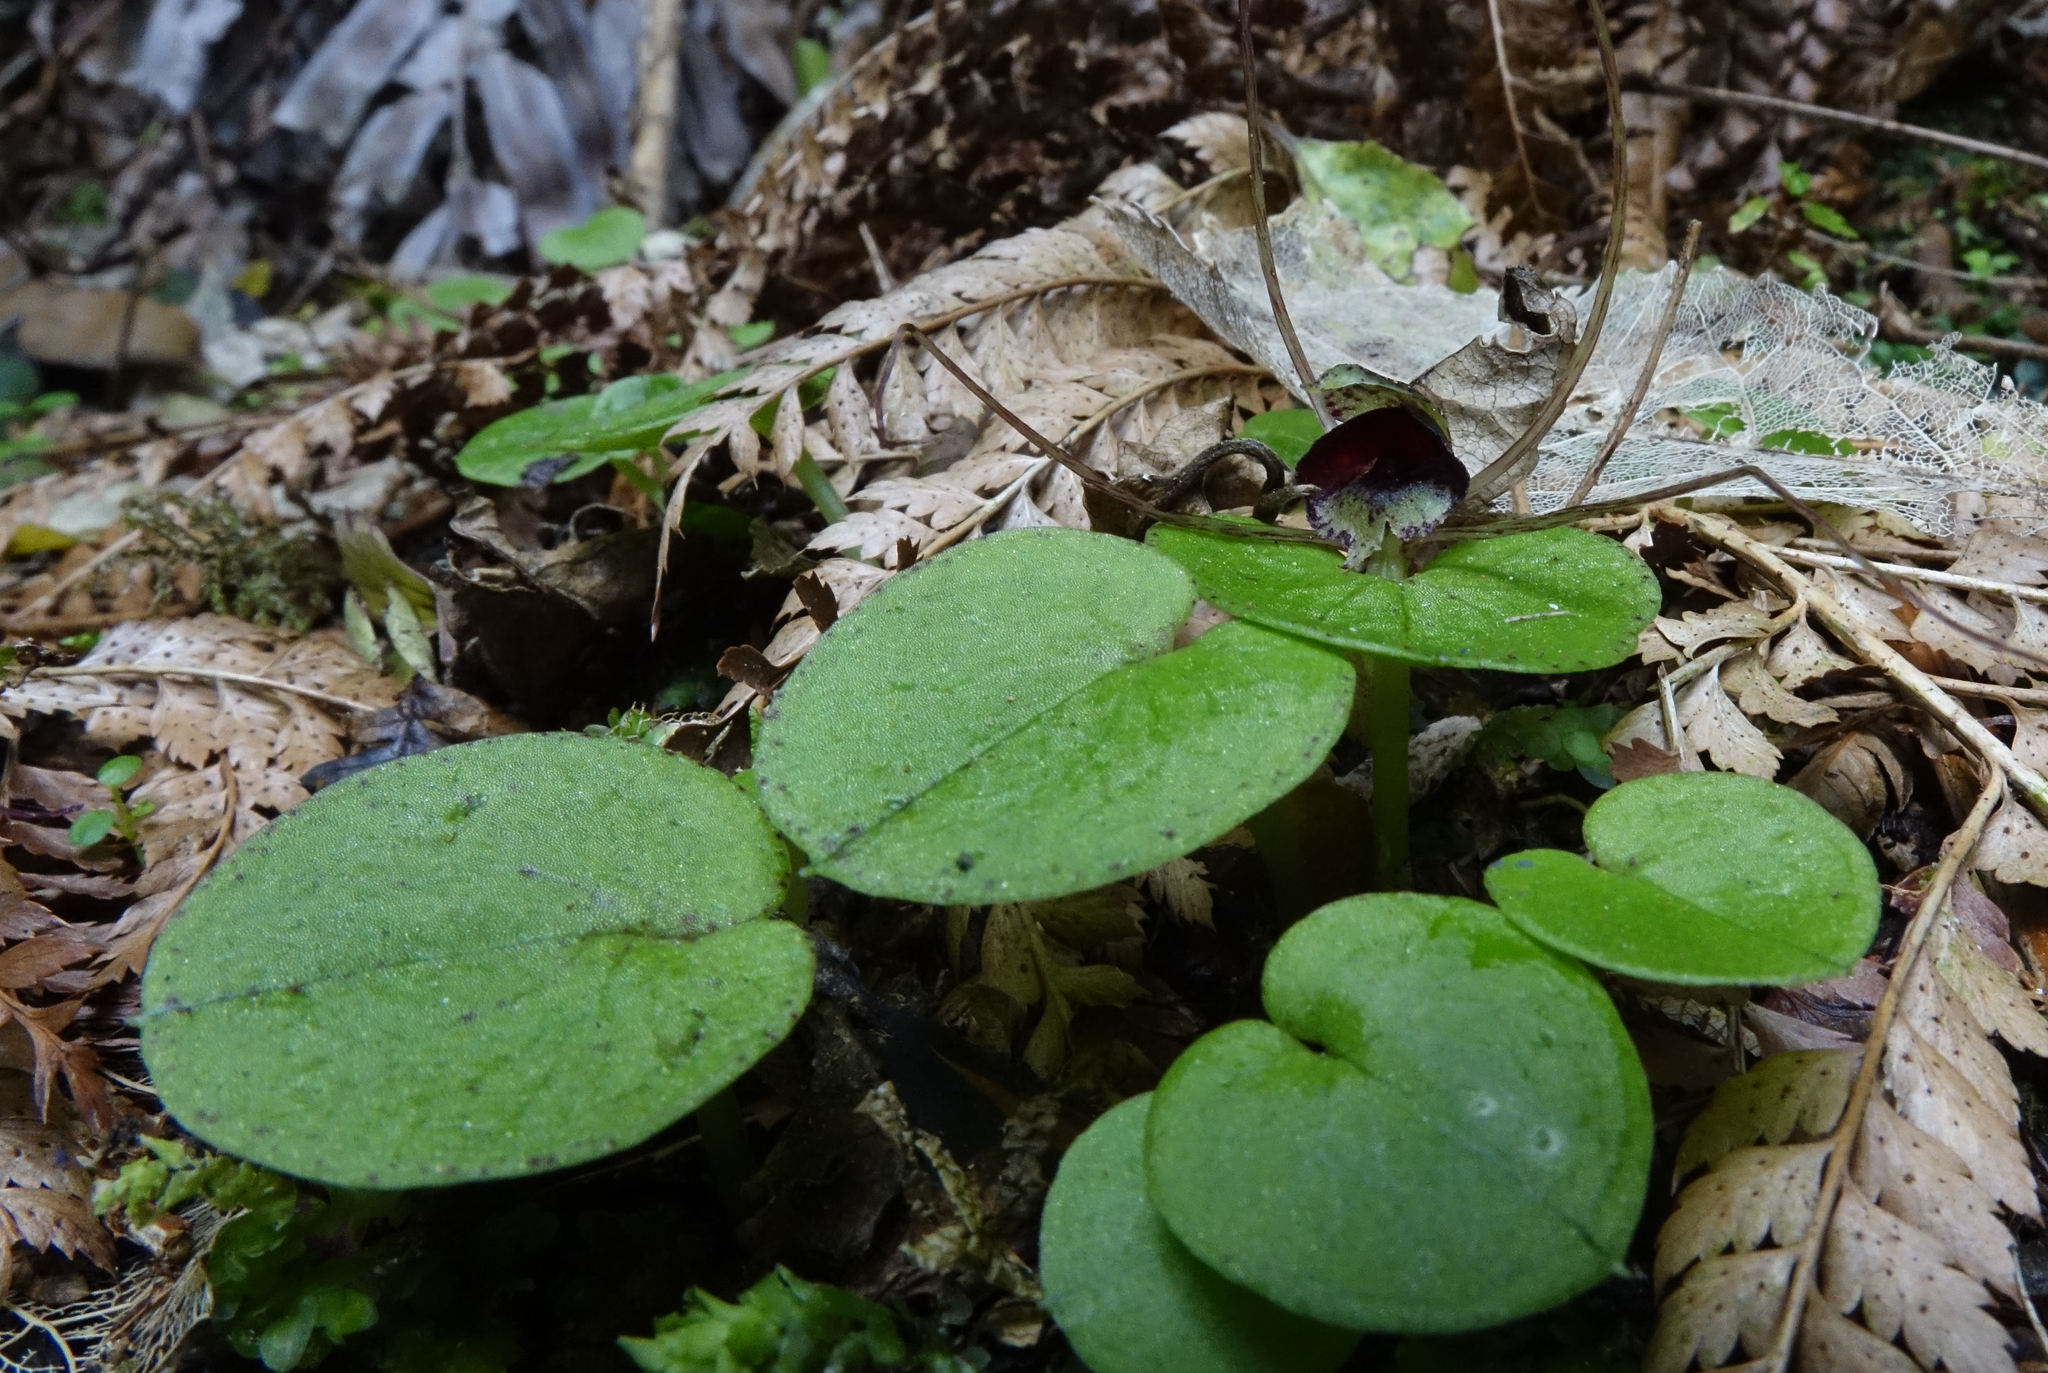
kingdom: Plantae
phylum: Tracheophyta
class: Liliopsida
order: Asparagales
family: Orchidaceae
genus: Corybas
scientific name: Corybas iridescens
